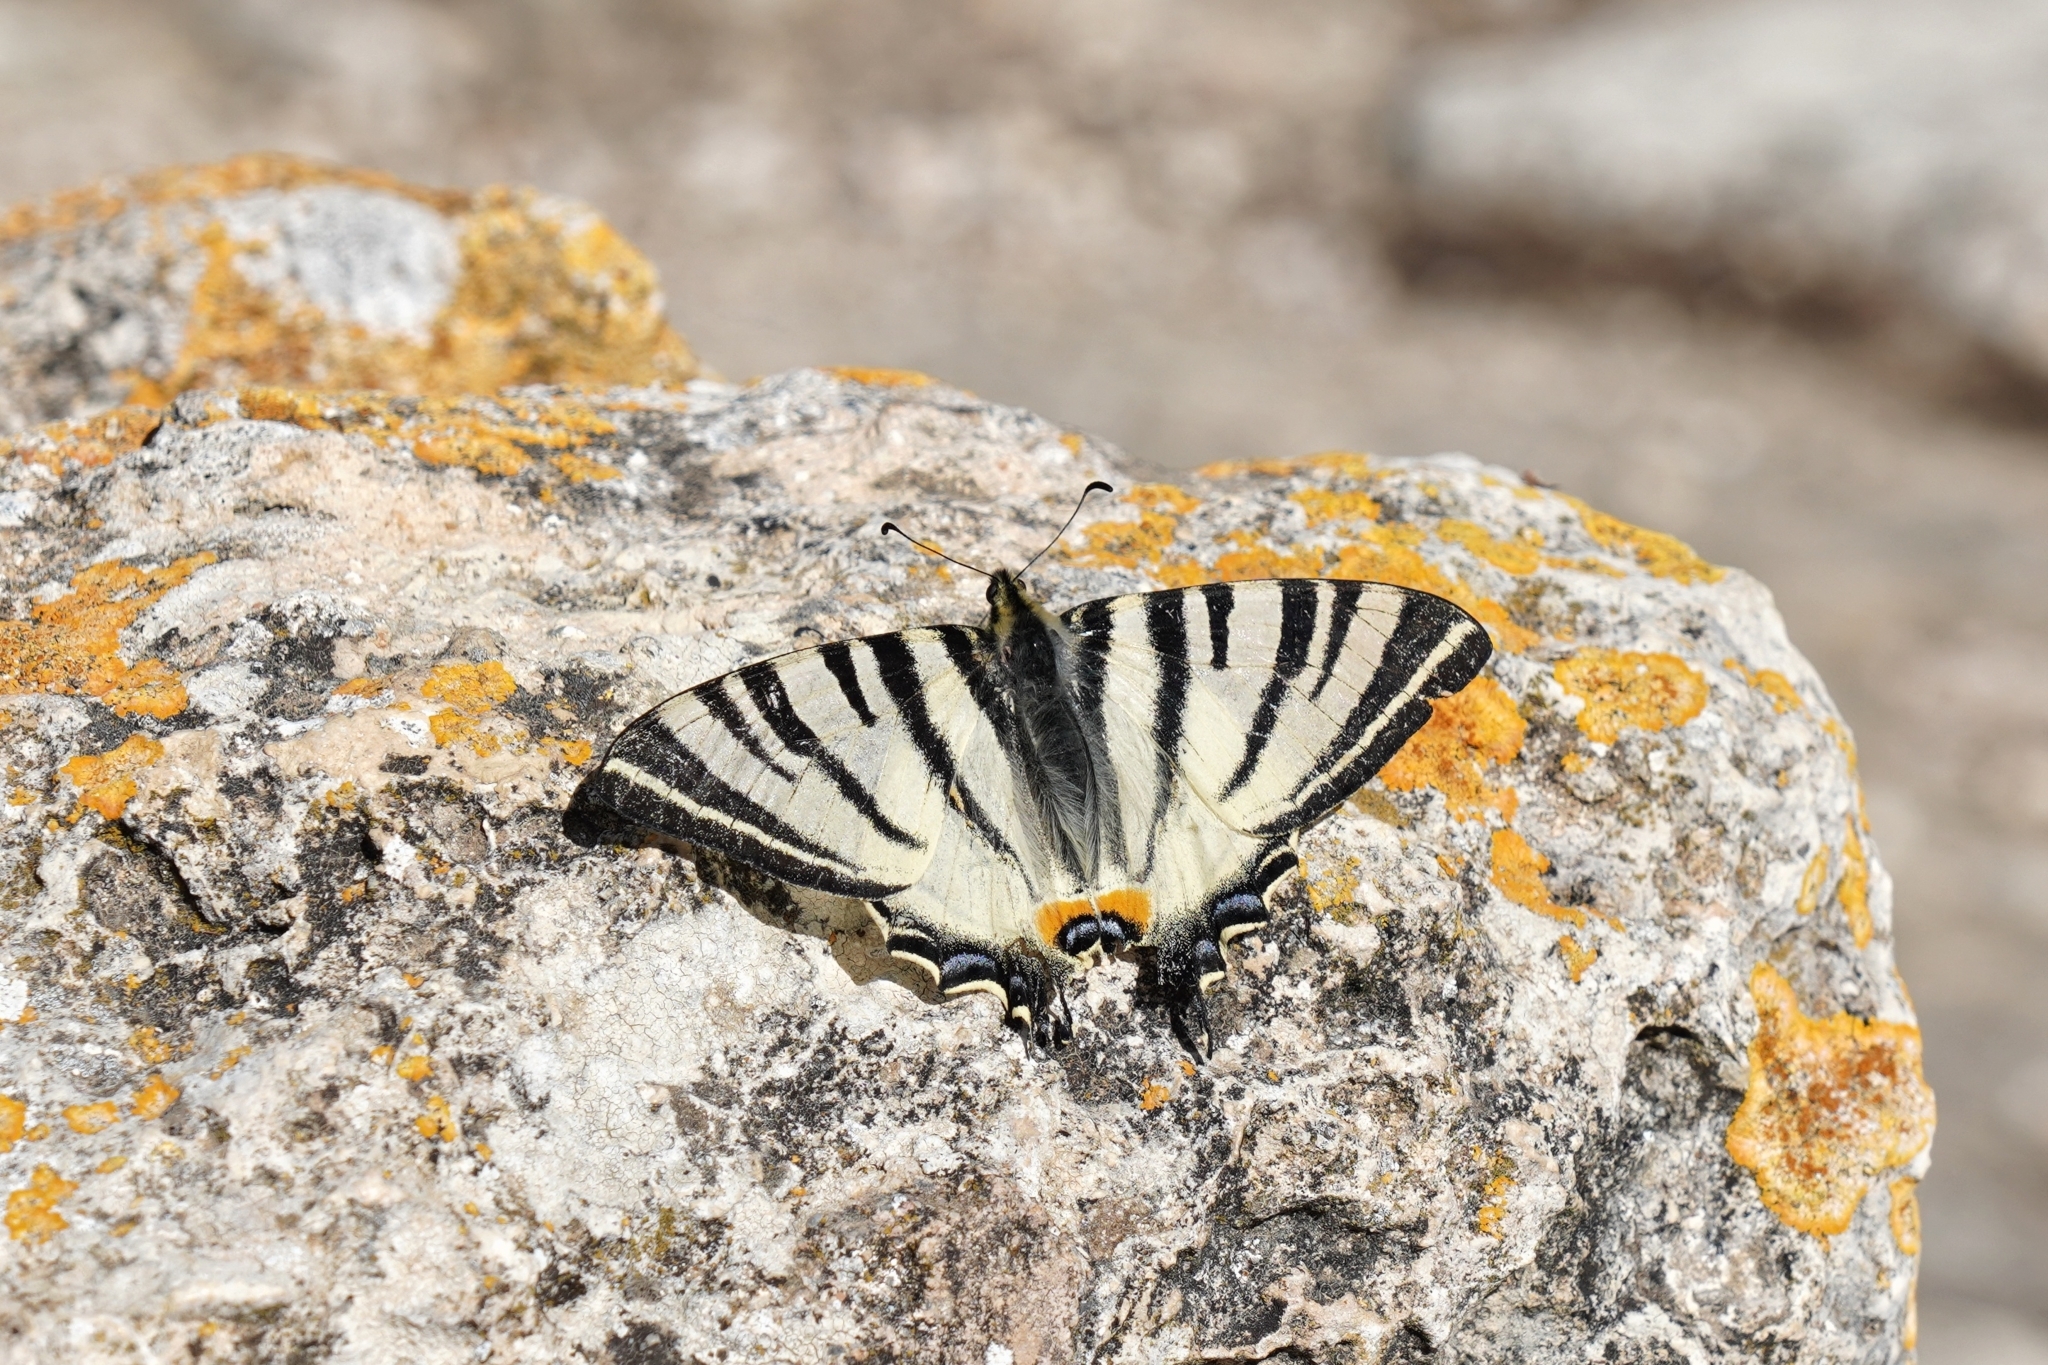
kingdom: Animalia
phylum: Arthropoda
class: Insecta
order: Lepidoptera
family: Papilionidae
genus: Iphiclides
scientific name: Iphiclides podalirius
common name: Scarce swallowtail
